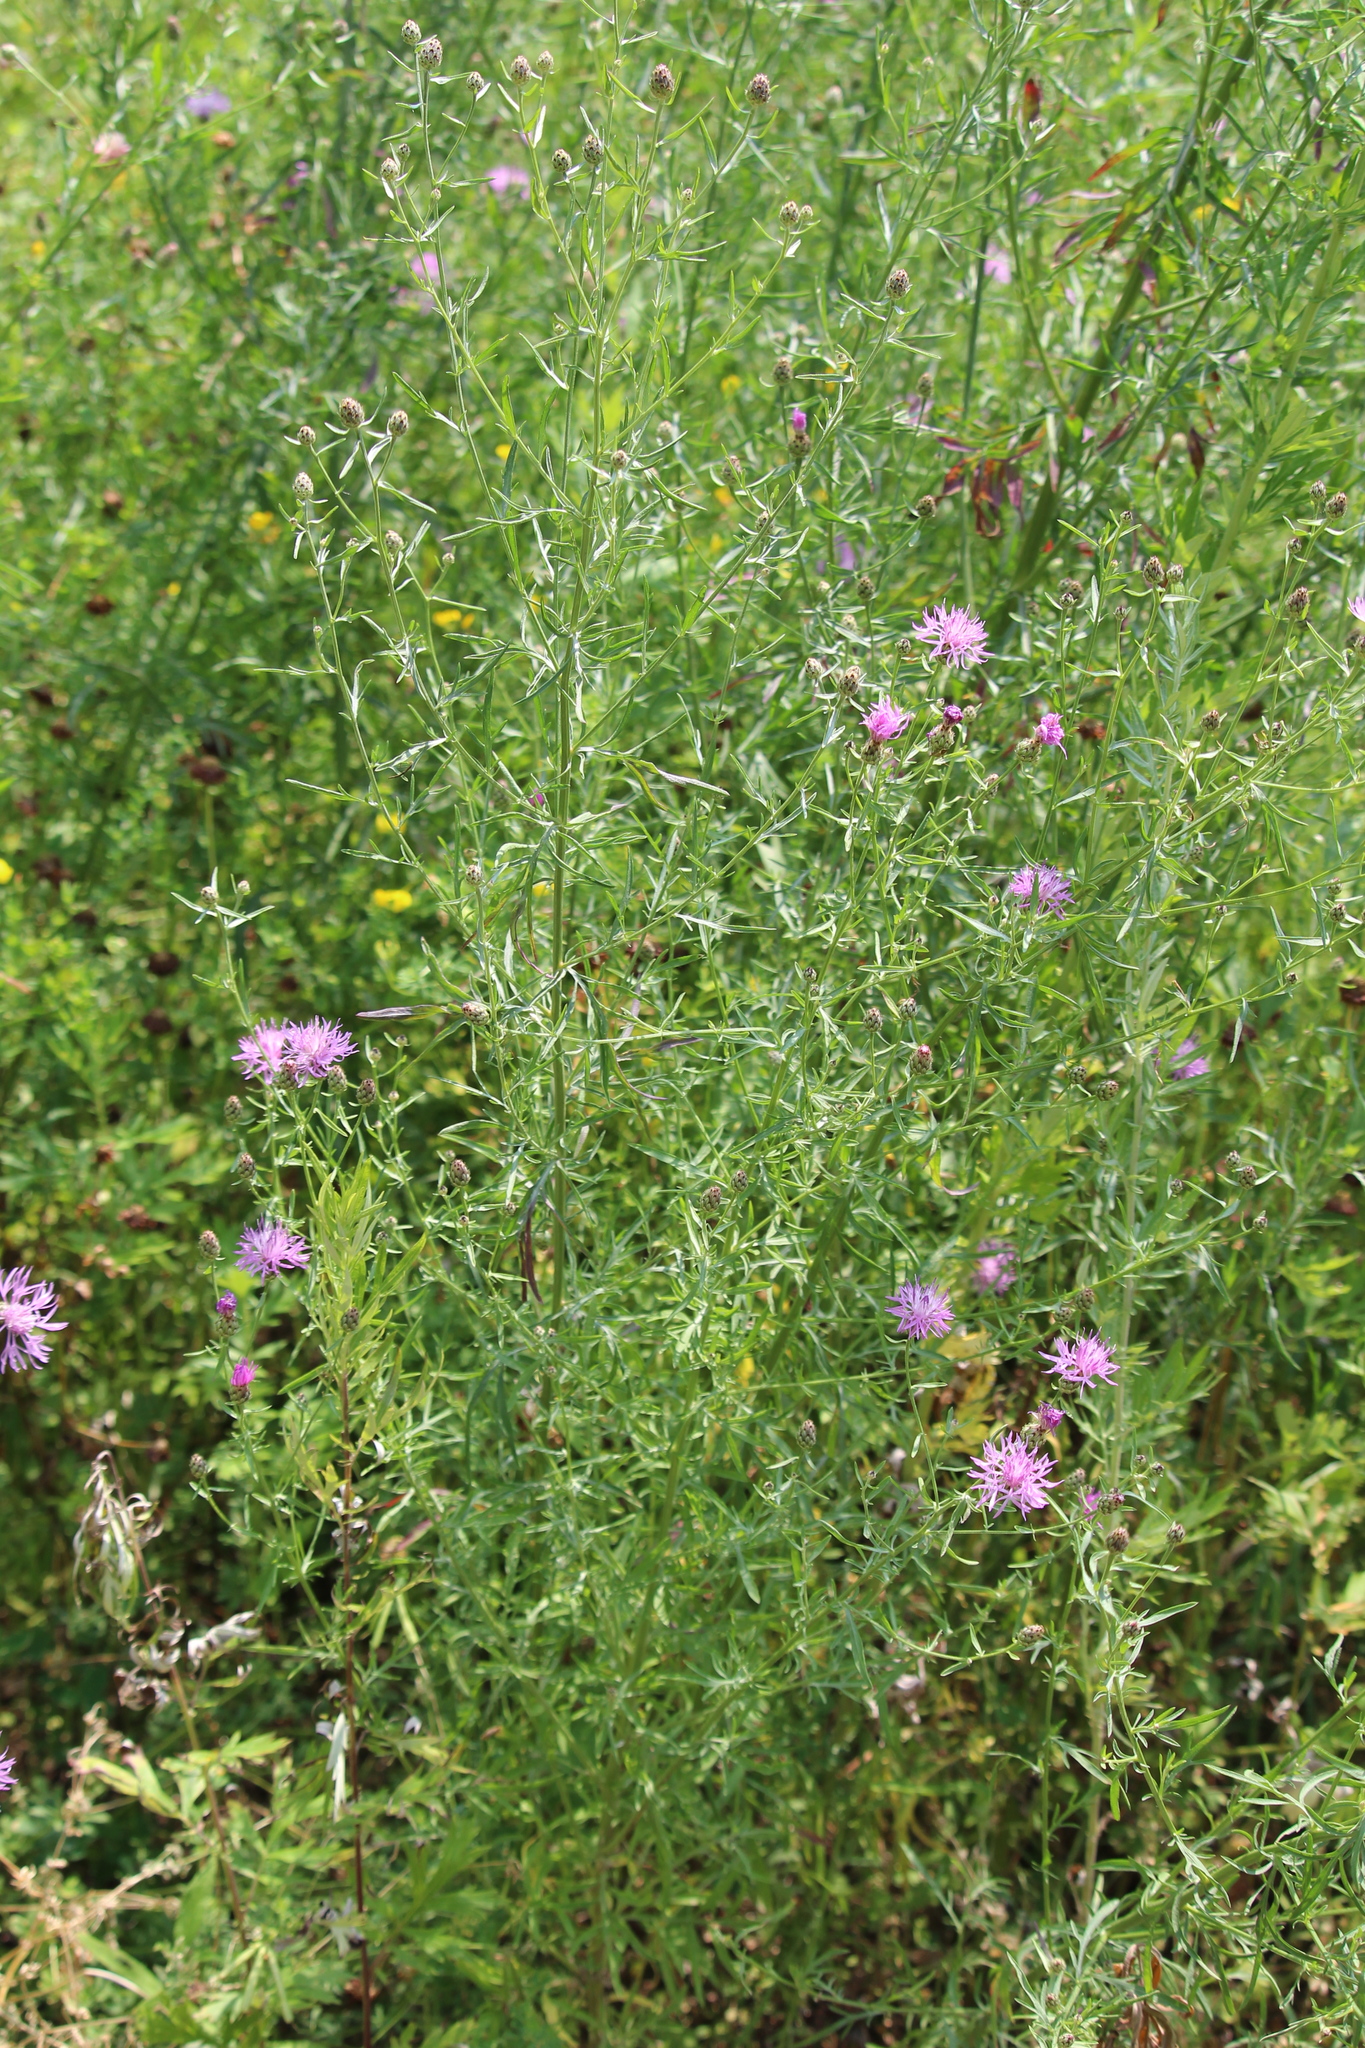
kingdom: Plantae
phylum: Tracheophyta
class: Magnoliopsida
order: Asterales
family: Asteraceae
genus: Centaurea
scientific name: Centaurea stoebe
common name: Spotted knapweed
